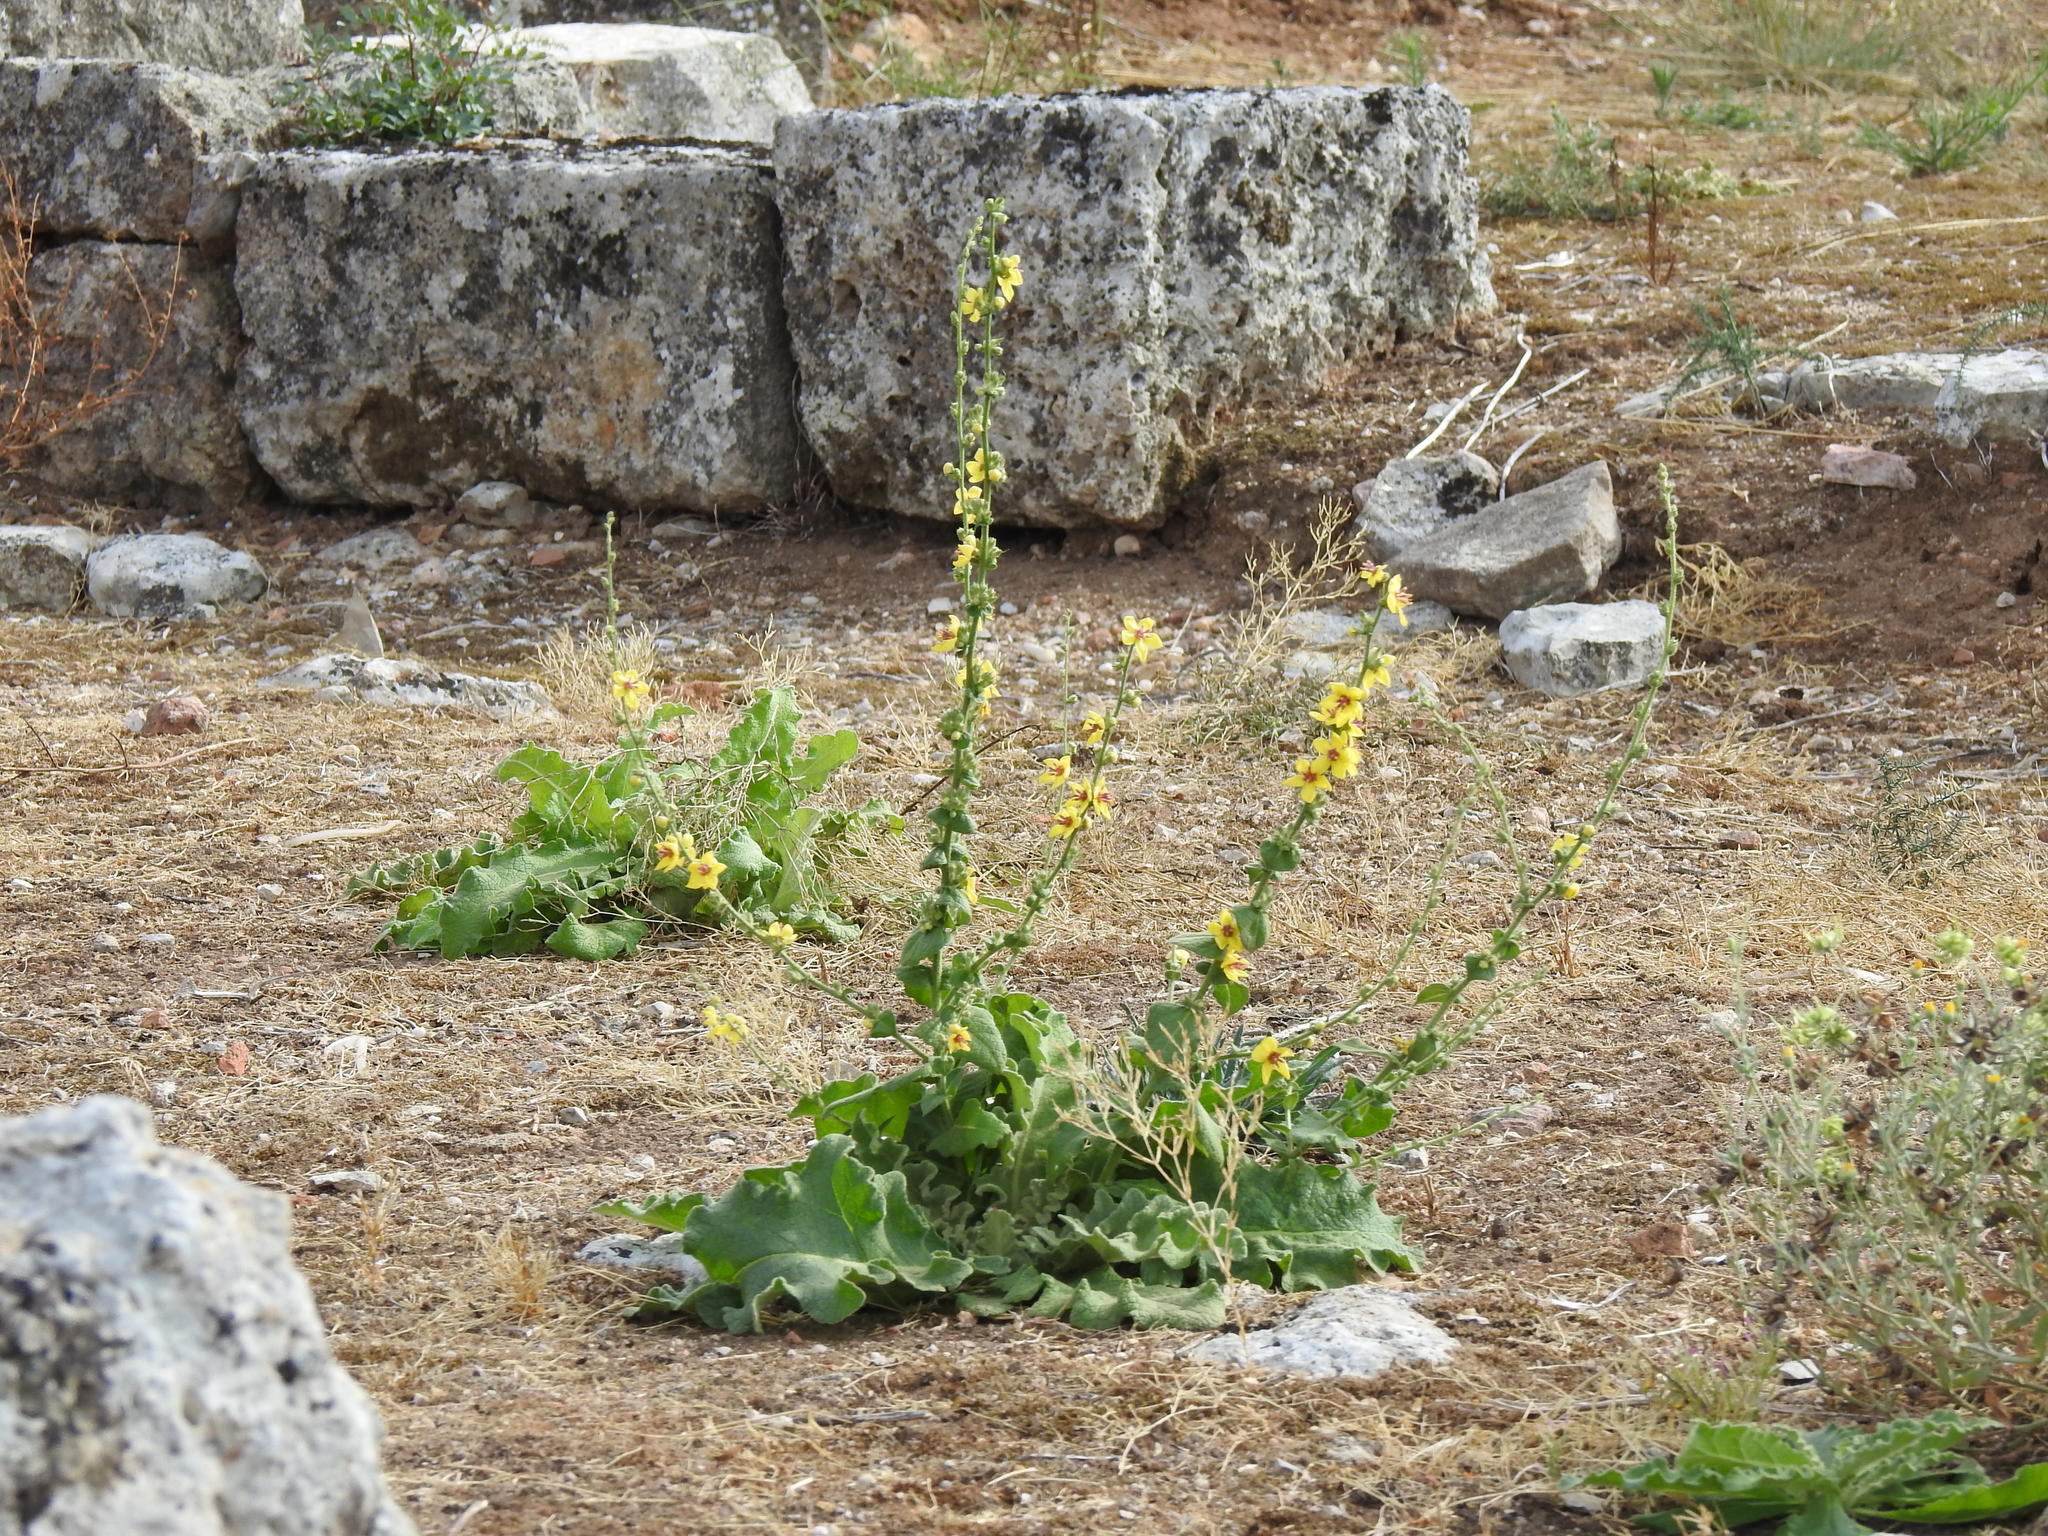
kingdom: Plantae
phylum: Tracheophyta
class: Magnoliopsida
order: Lamiales
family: Scrophulariaceae
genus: Verbascum
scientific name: Verbascum sinuatum
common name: Wavyleaf mullein
